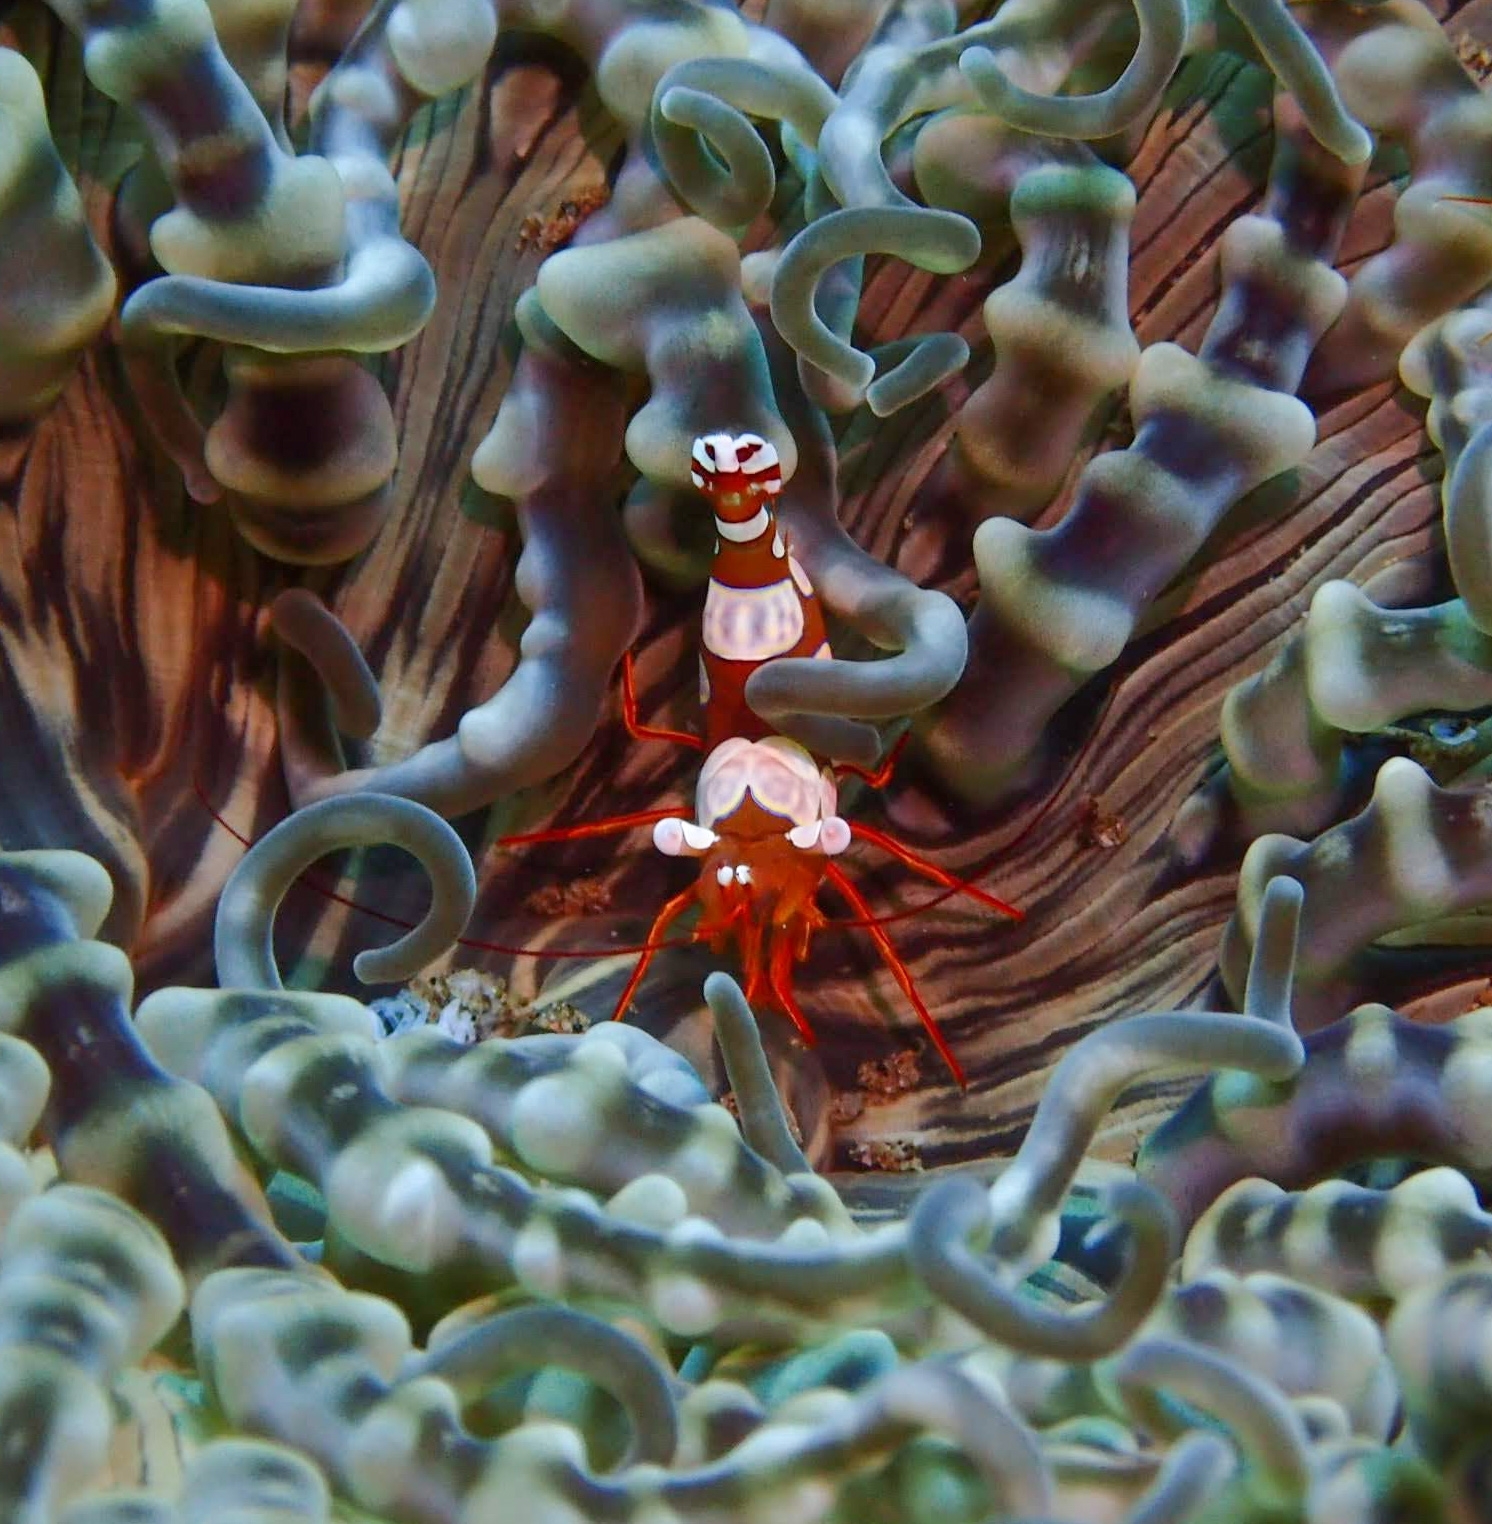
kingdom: Animalia
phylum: Arthropoda
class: Malacostraca
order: Decapoda
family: Thoridae
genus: Thor
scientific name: Thor amboinensis
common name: Squat anemone shrimp
